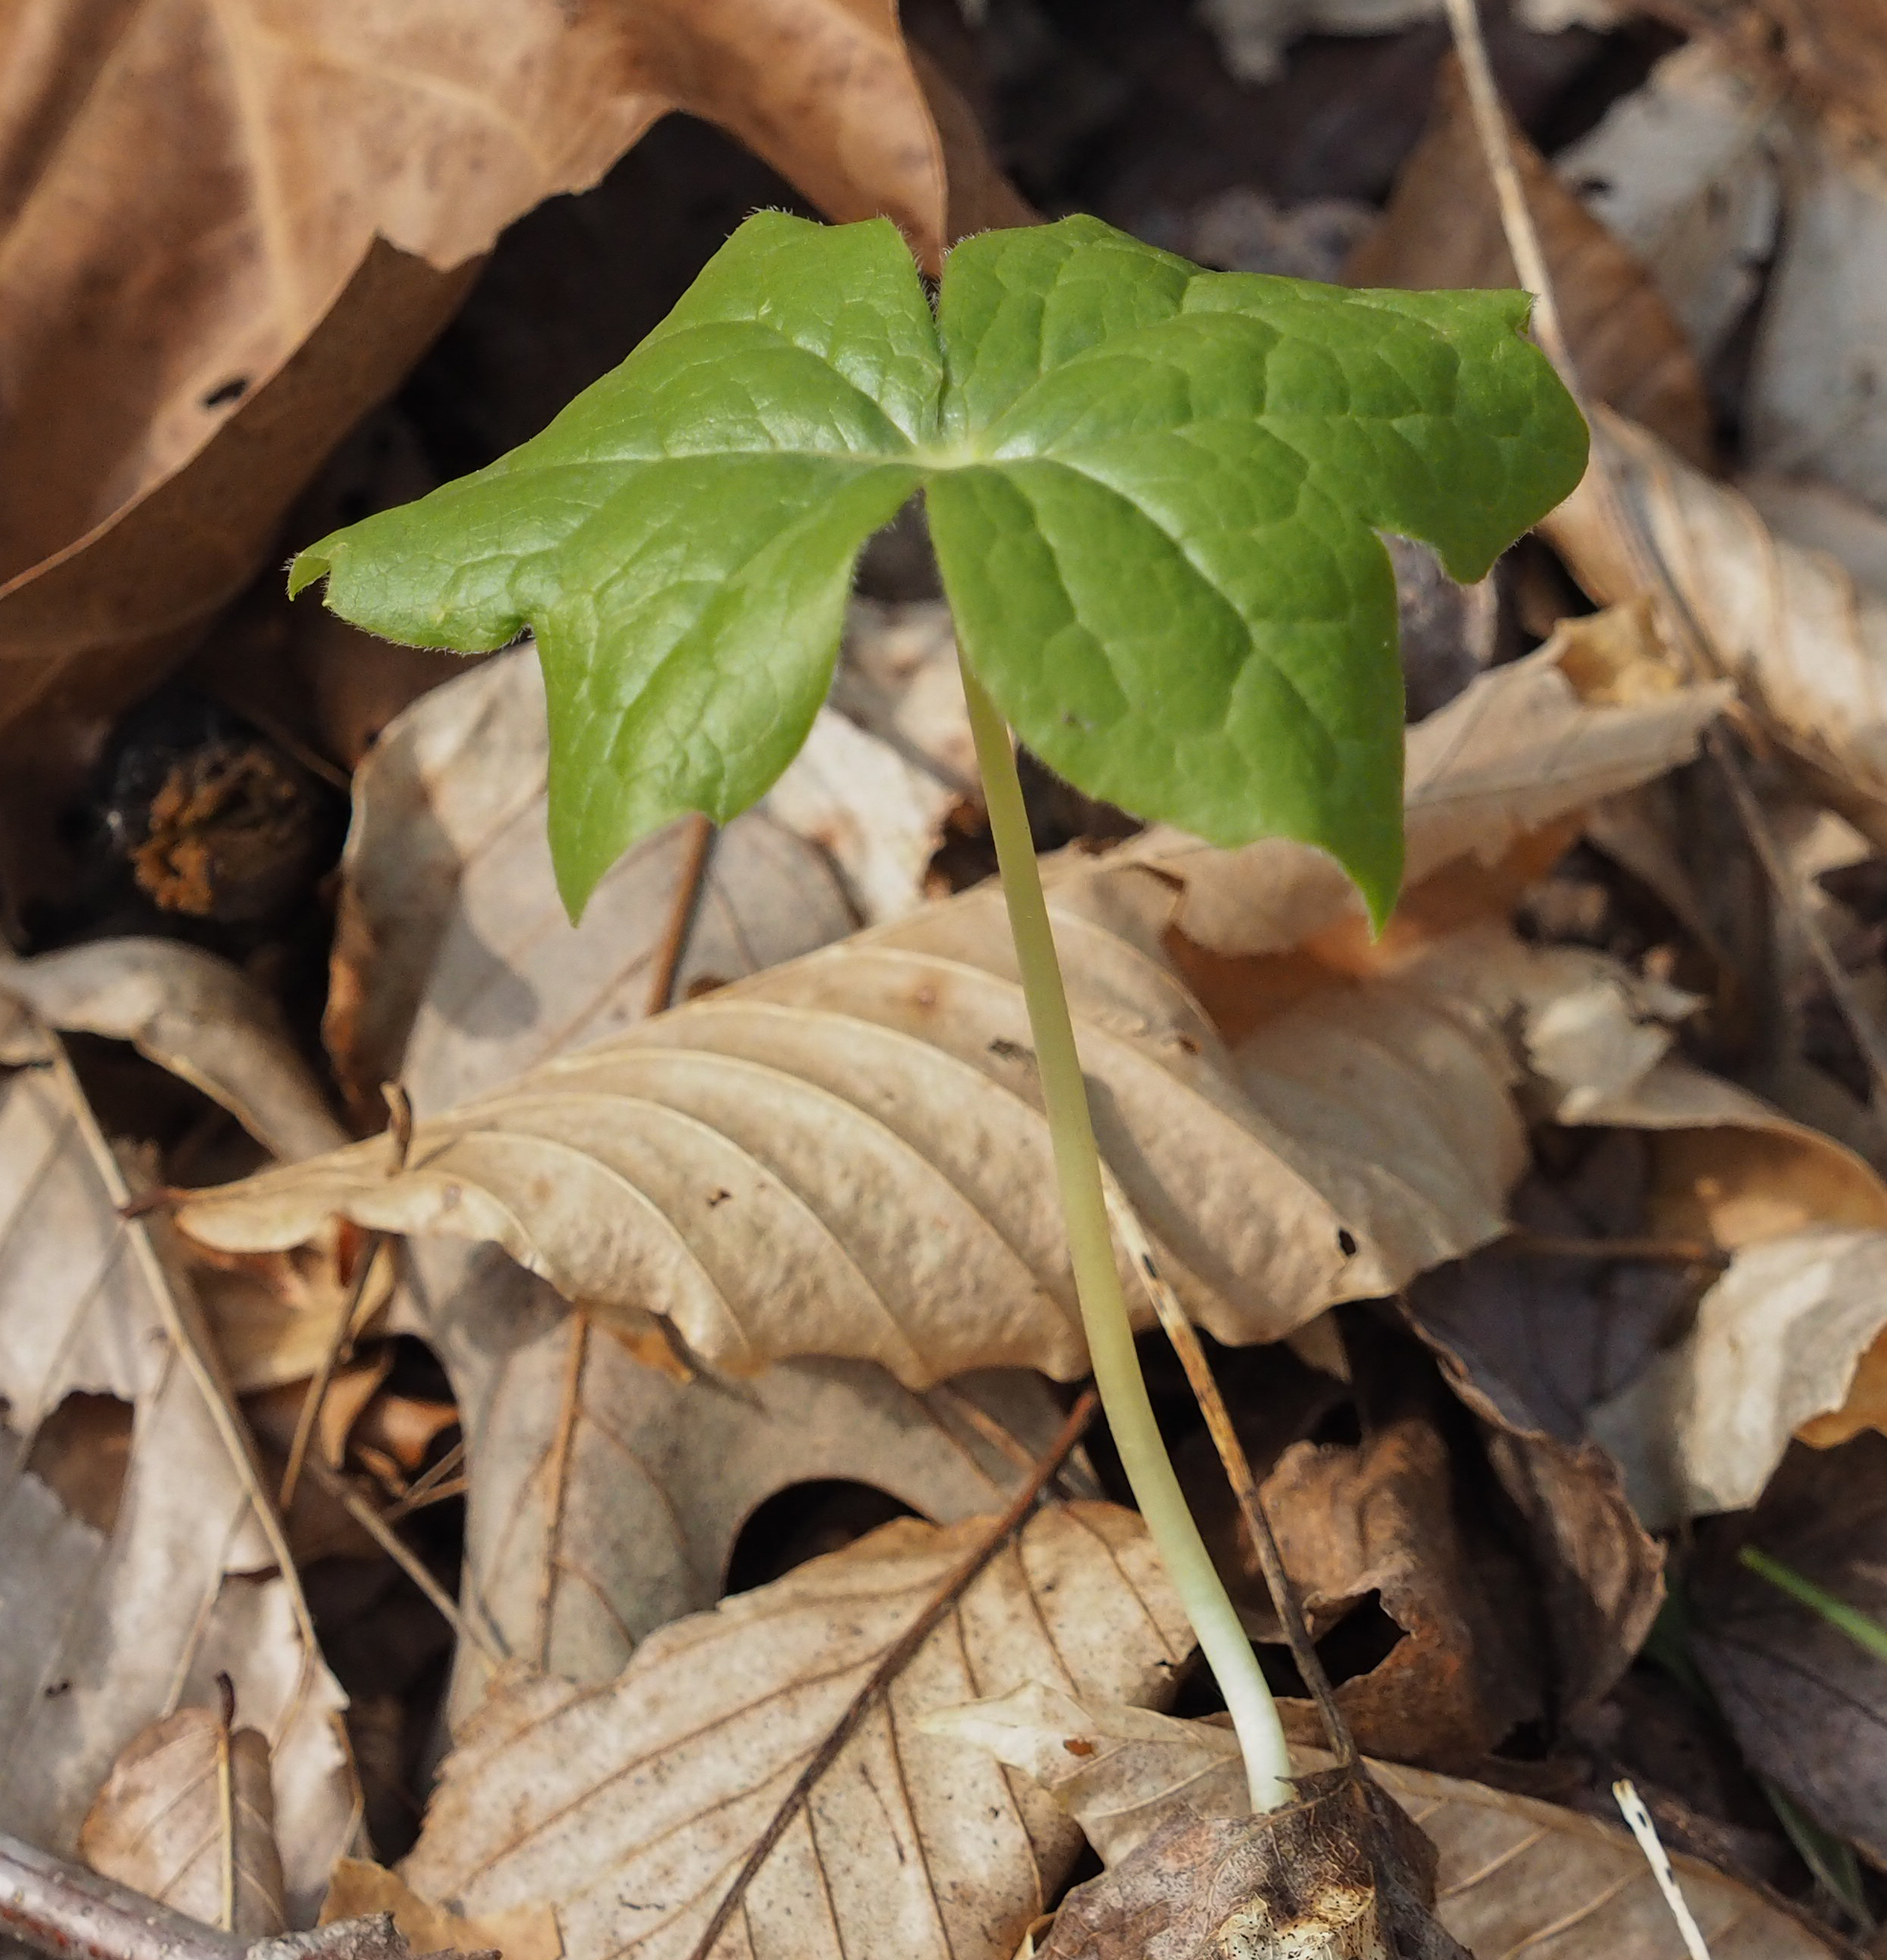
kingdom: Plantae
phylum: Tracheophyta
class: Magnoliopsida
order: Ranunculales
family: Berberidaceae
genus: Podophyllum
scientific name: Podophyllum peltatum
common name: Wild mandrake
